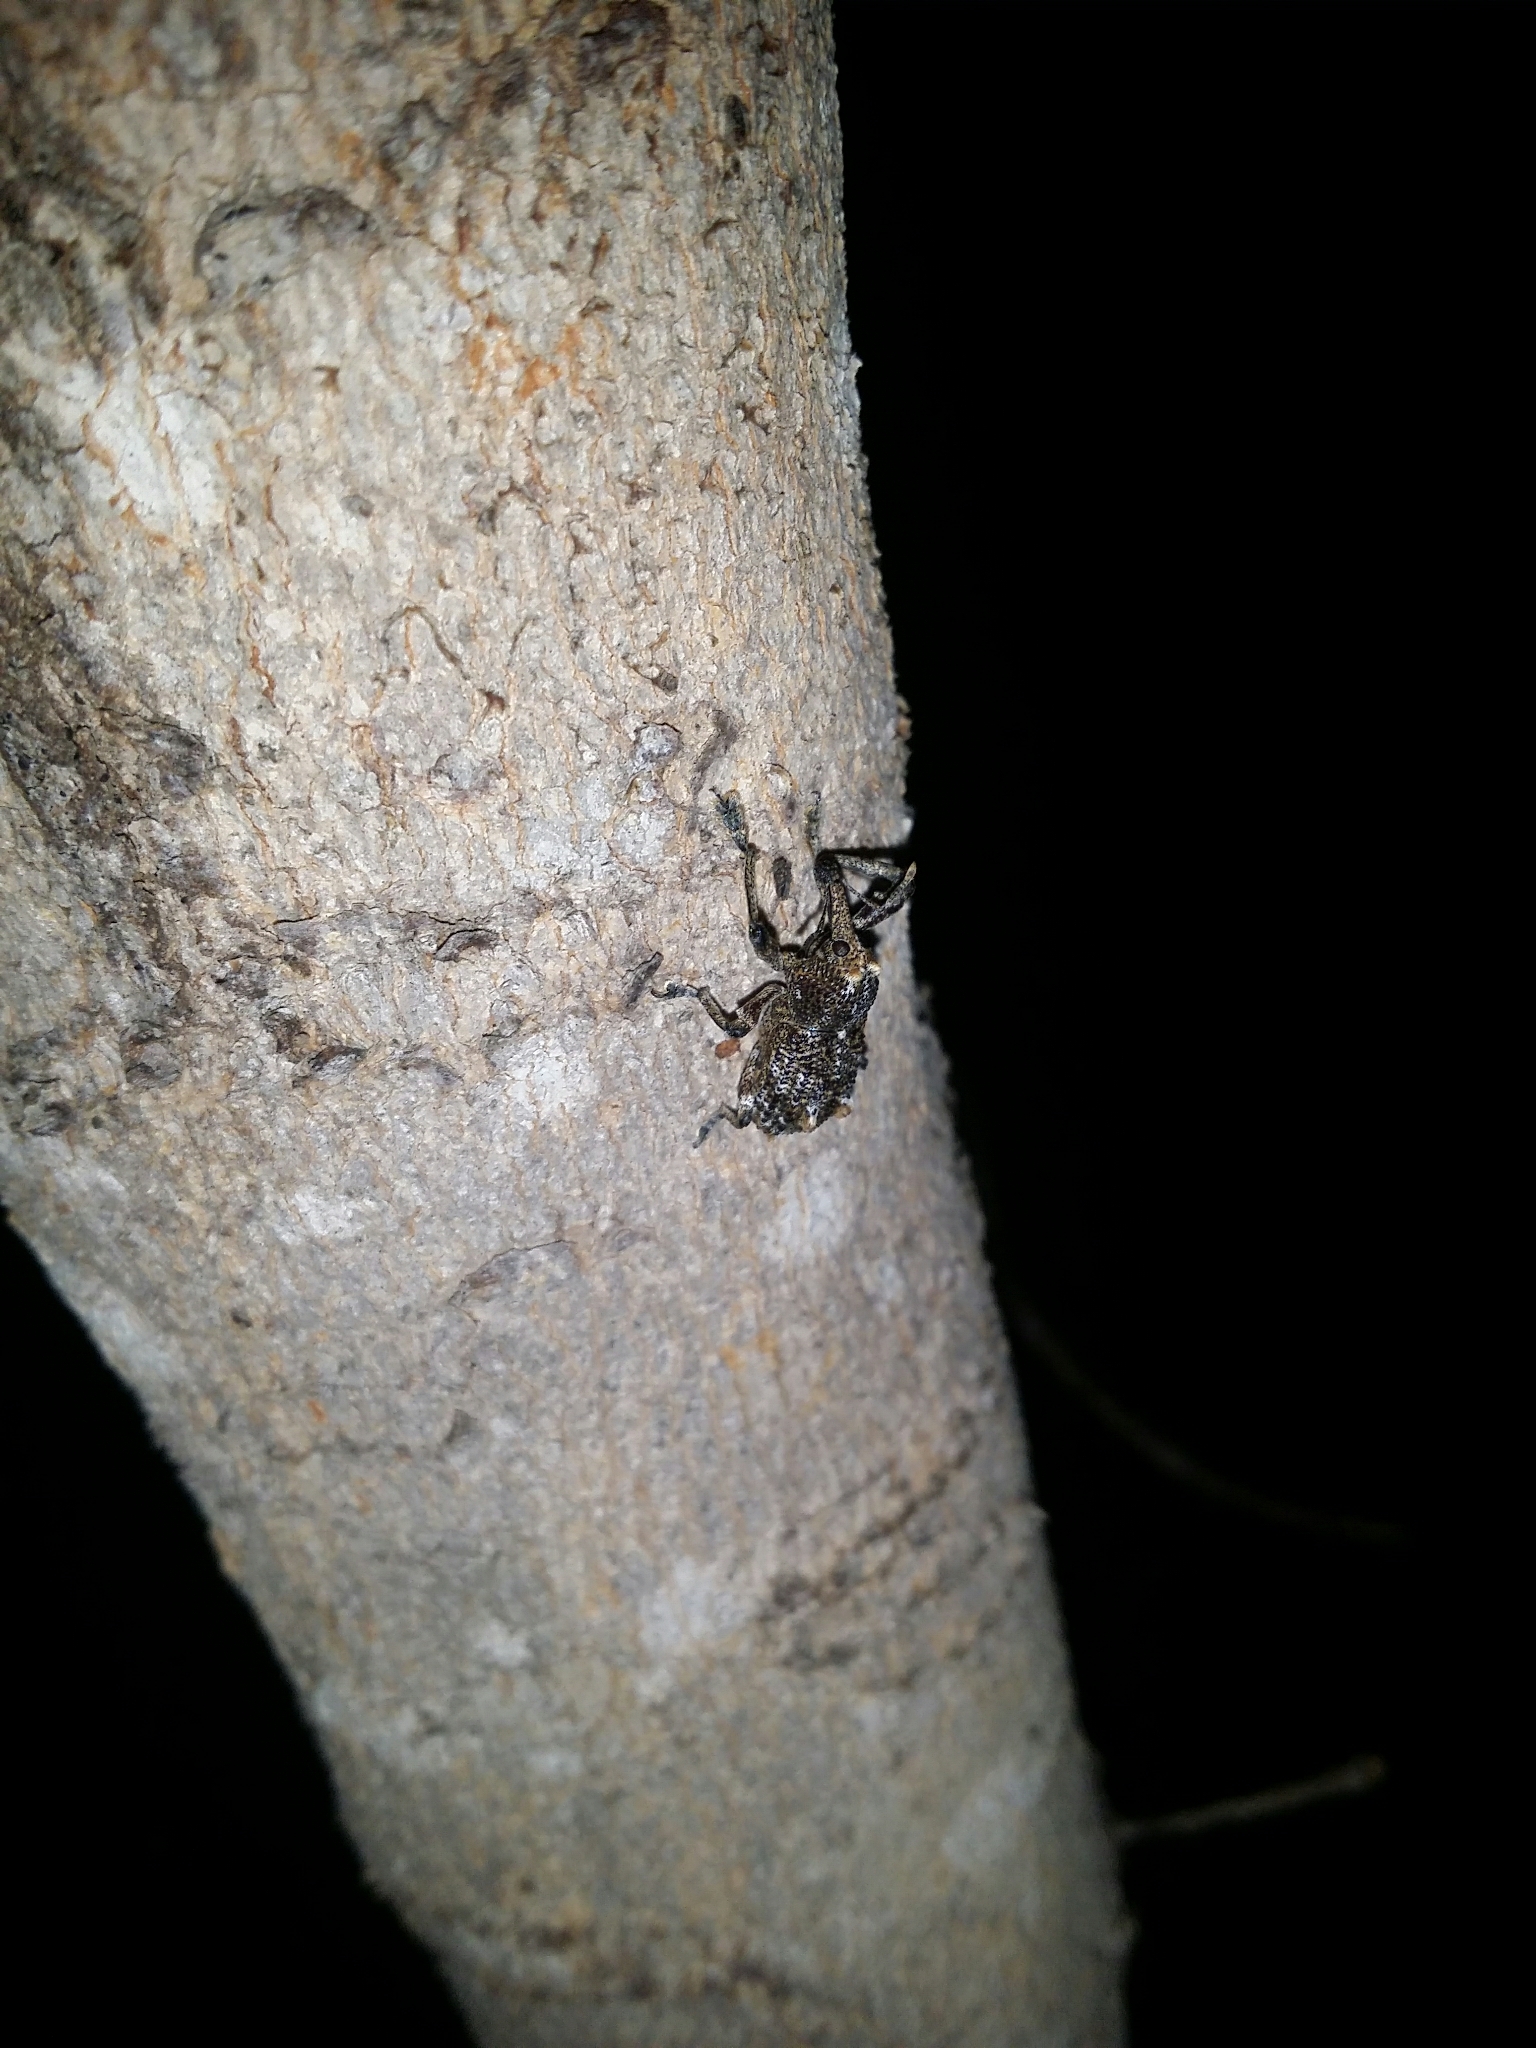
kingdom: Animalia
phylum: Arthropoda
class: Insecta
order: Coleoptera
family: Curculionidae
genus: Orthorhinus
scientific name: Orthorhinus cylindrirostris
